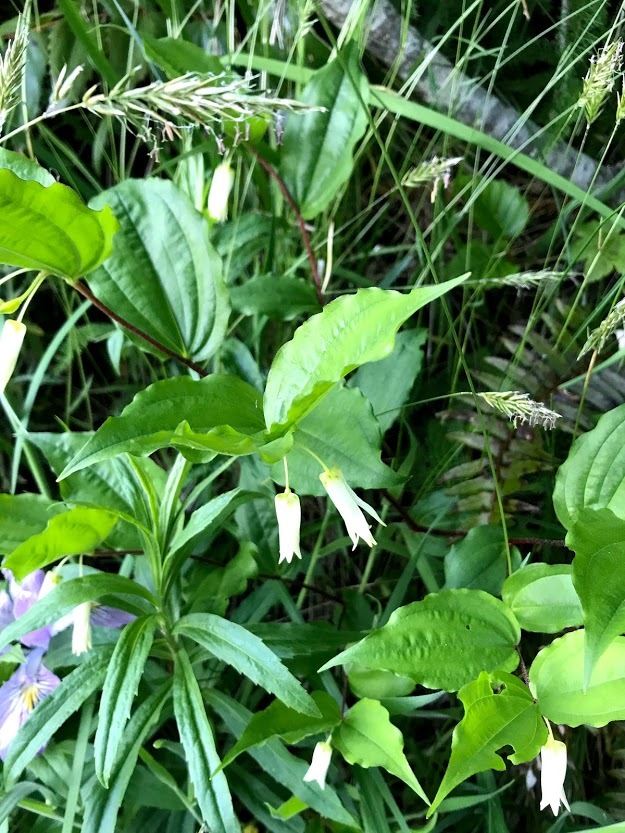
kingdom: Plantae
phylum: Tracheophyta
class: Liliopsida
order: Liliales
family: Liliaceae
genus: Prosartes
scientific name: Prosartes smithii
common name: Fairy-lantern
